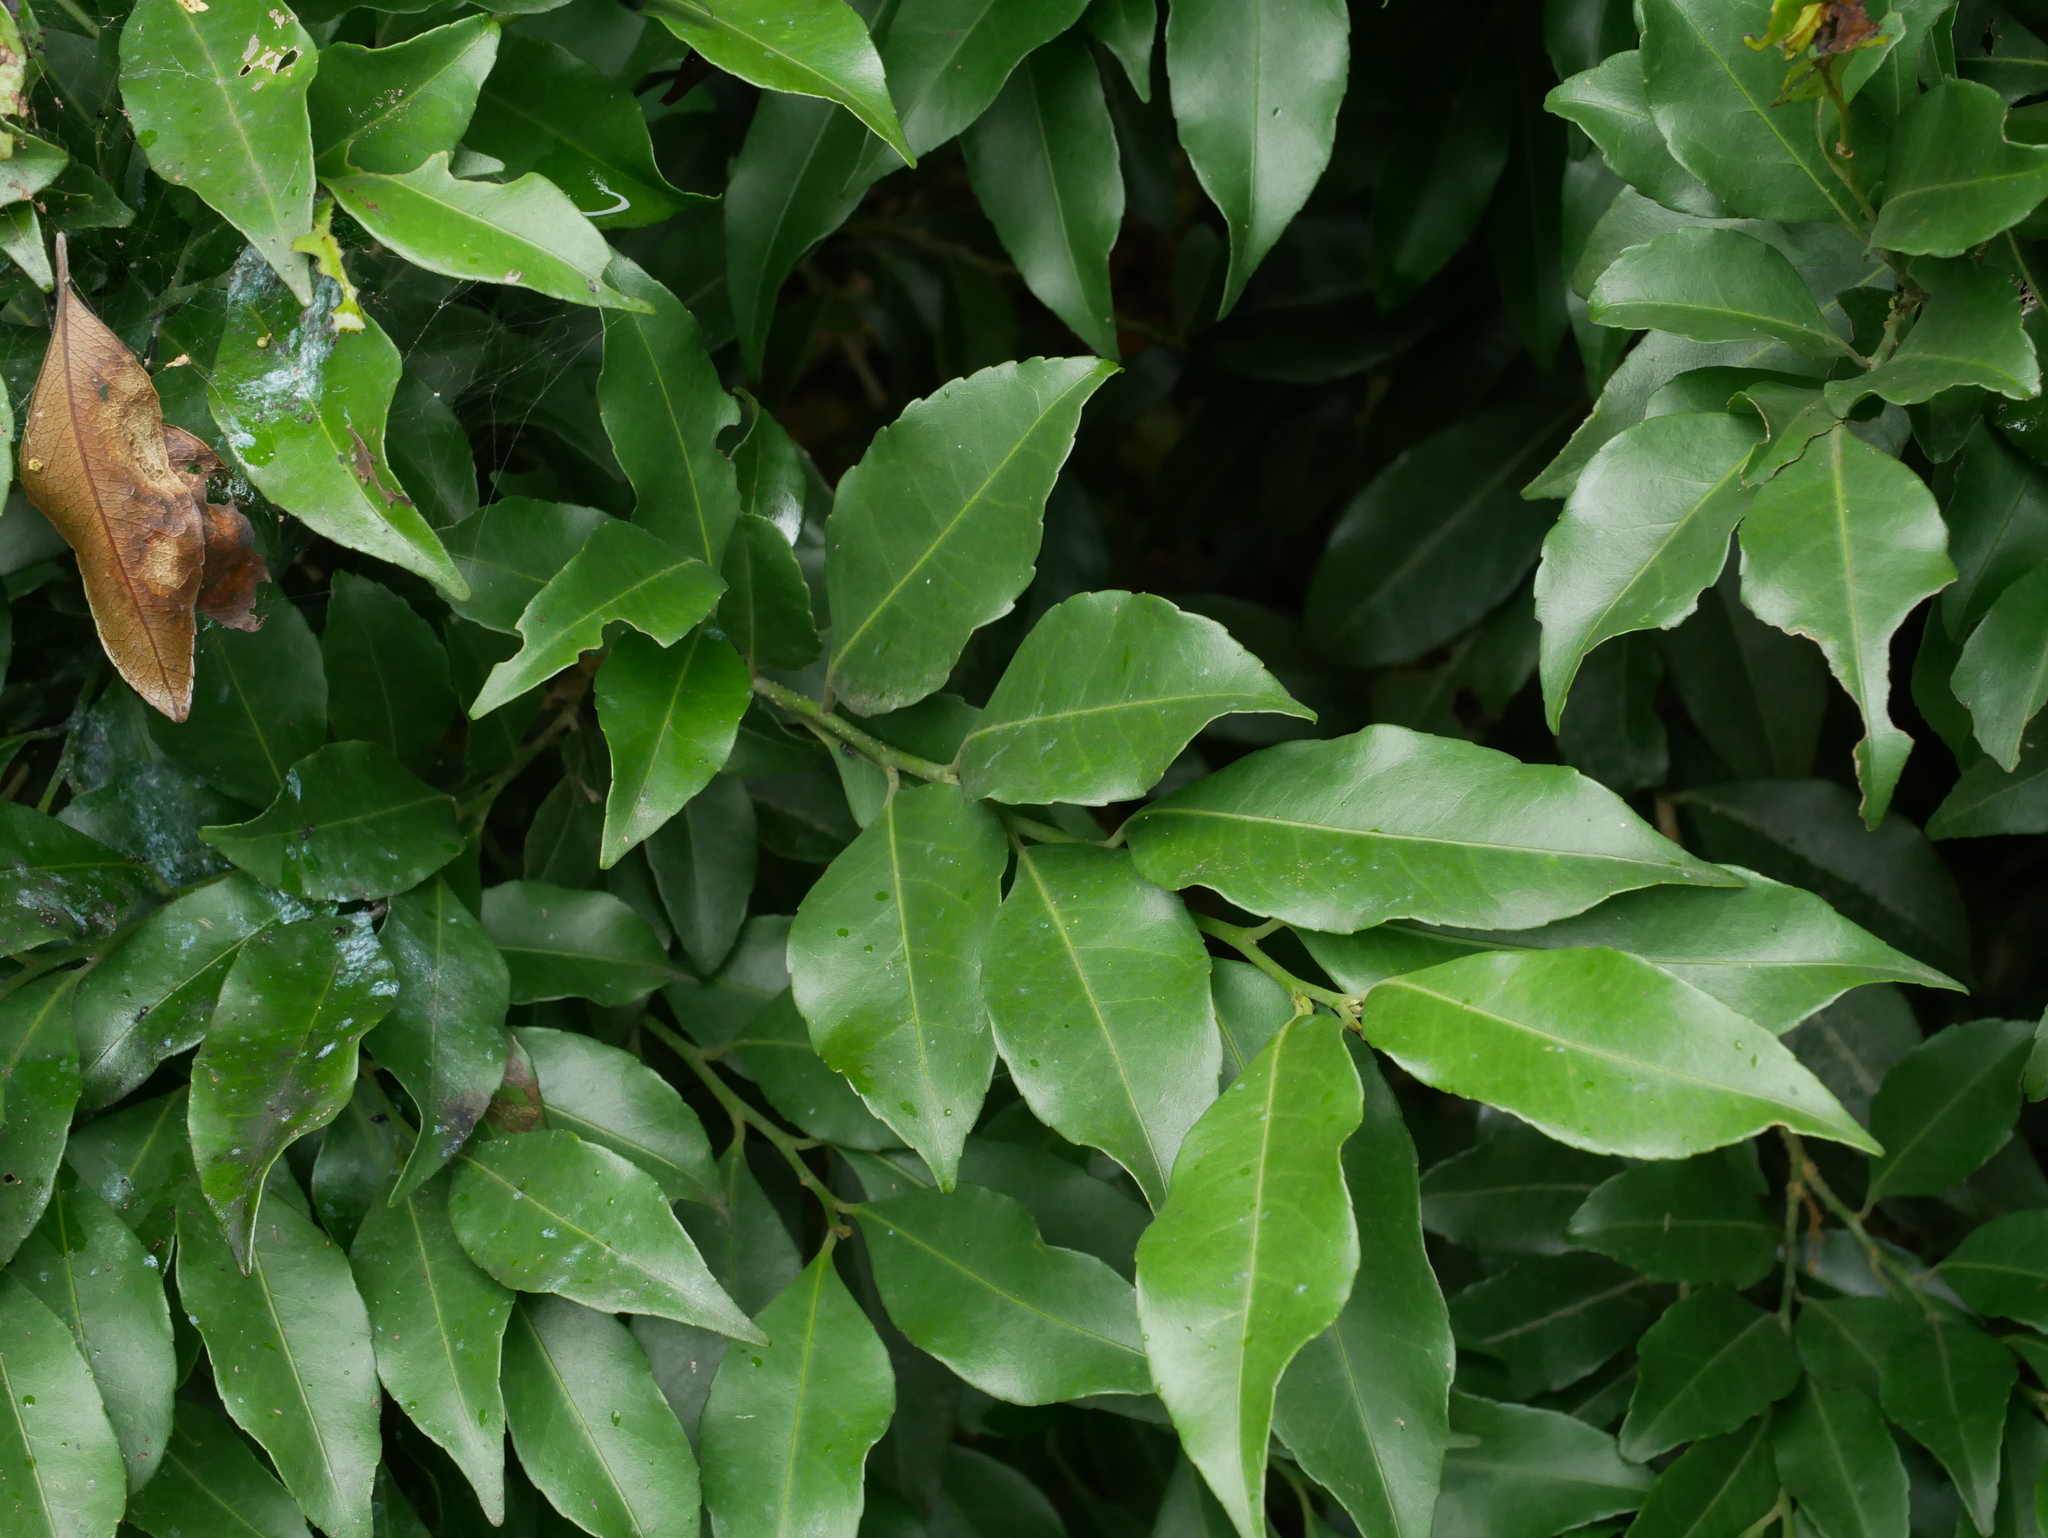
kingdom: Plantae
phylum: Tracheophyta
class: Magnoliopsida
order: Malpighiales
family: Putranjivaceae
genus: Putranjiva
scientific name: Putranjiva formosana
